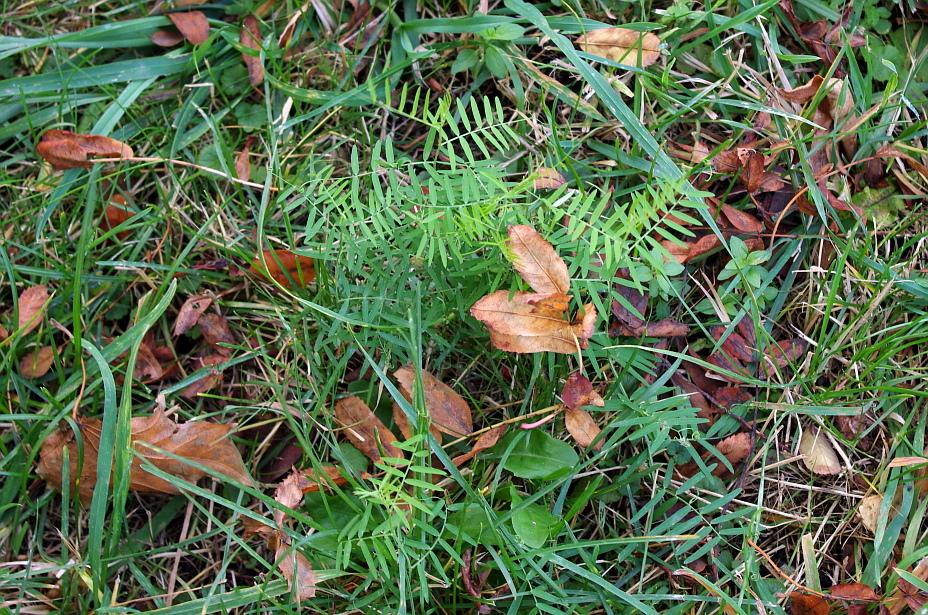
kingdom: Plantae
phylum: Tracheophyta
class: Magnoliopsida
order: Fabales
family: Fabaceae
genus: Vicia
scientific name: Vicia cracca
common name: Bird vetch
